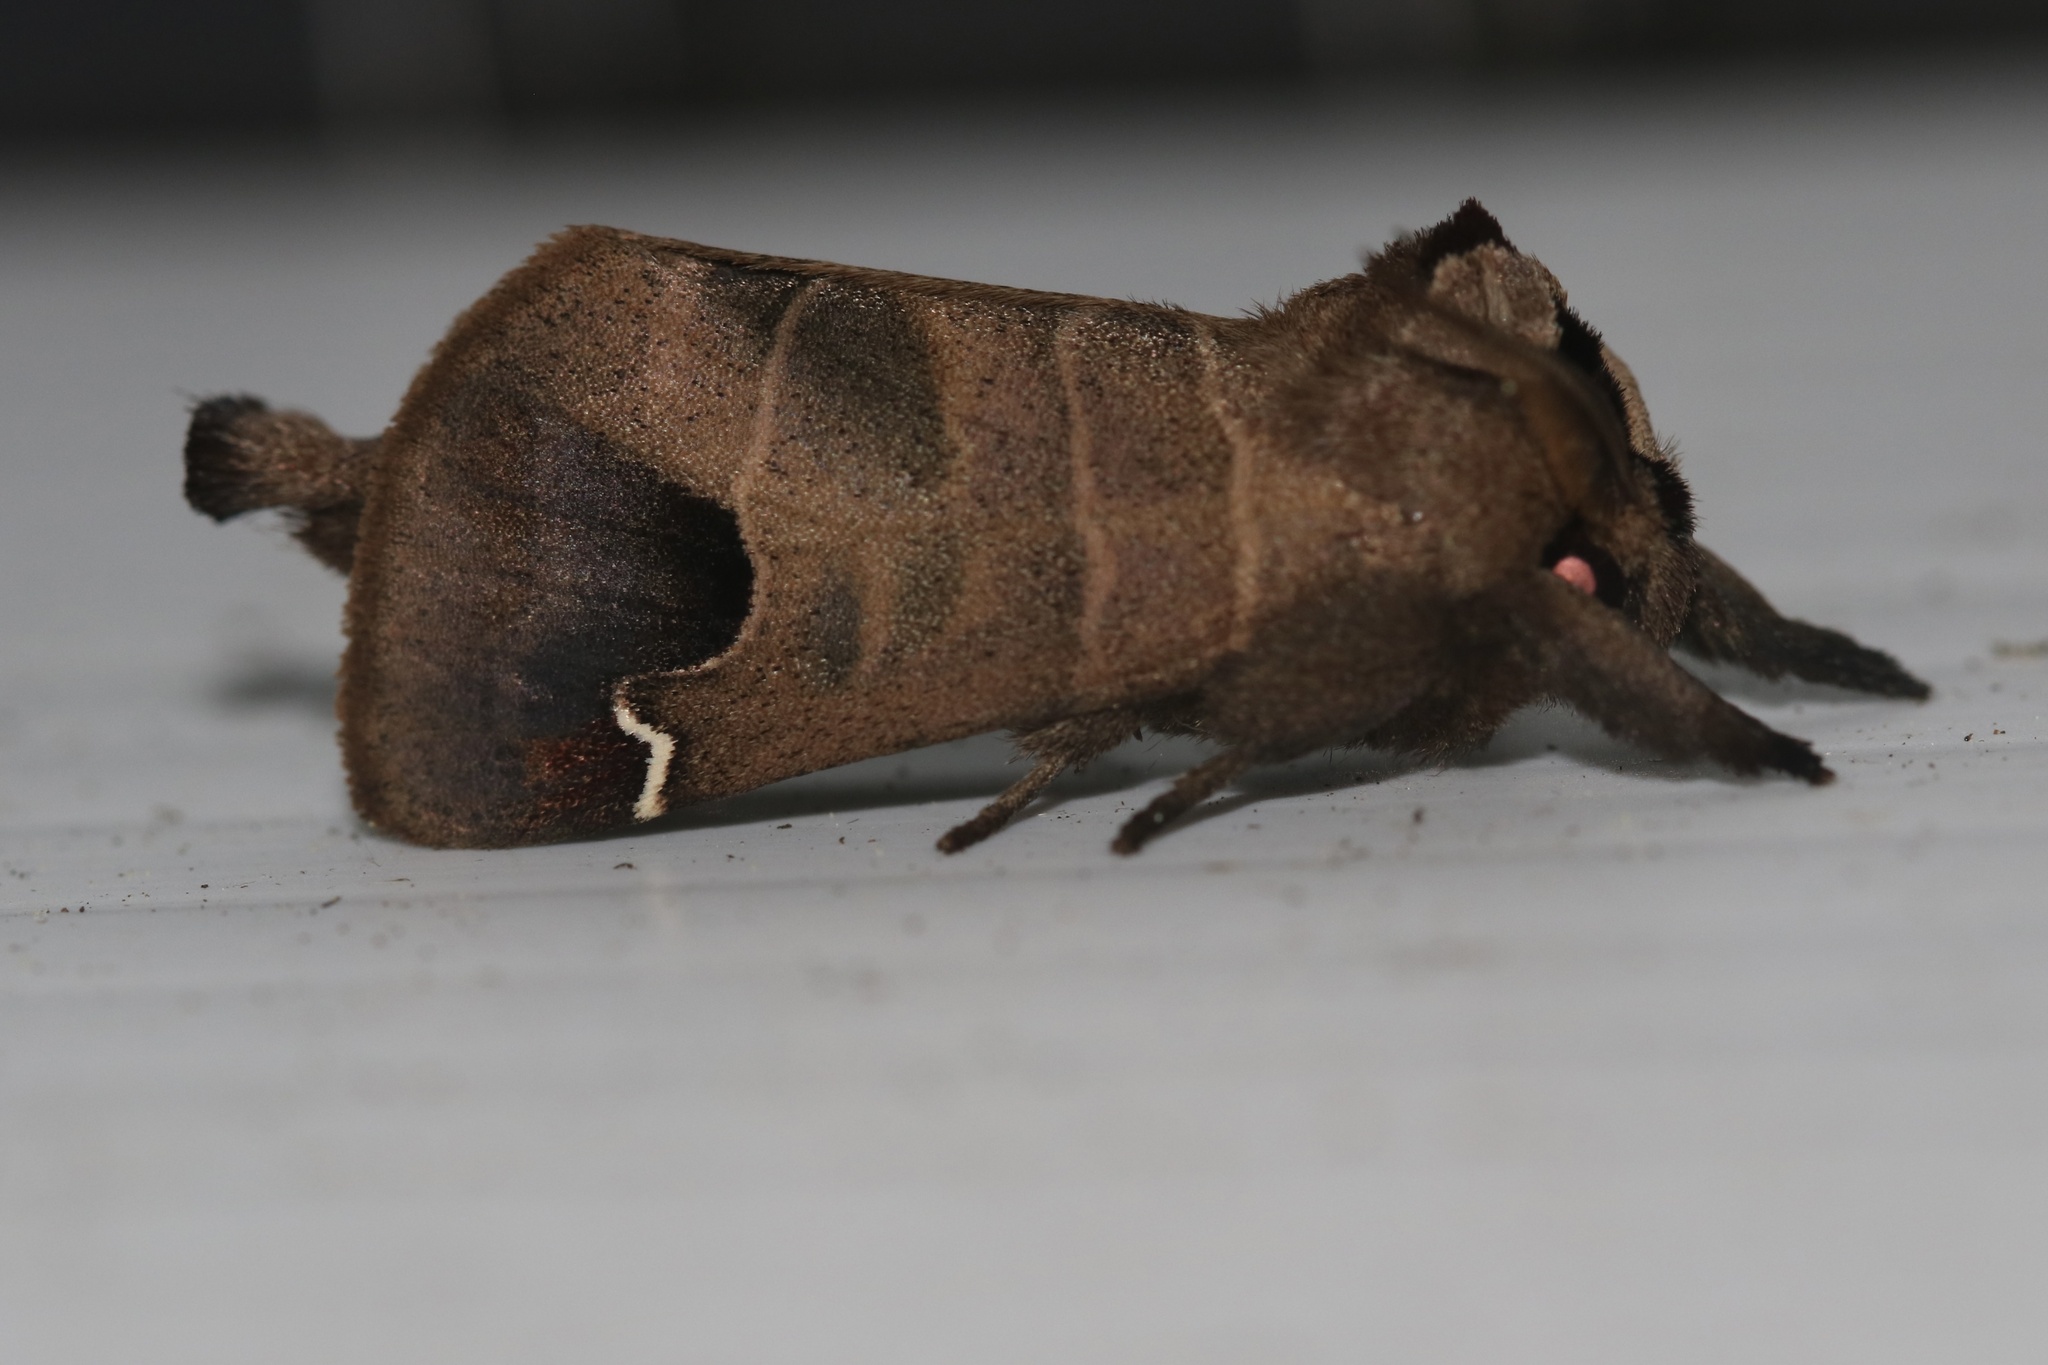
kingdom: Animalia
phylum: Arthropoda
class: Insecta
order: Lepidoptera
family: Notodontidae
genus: Clostera
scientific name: Clostera albosigma
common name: Sigmoid prominent
